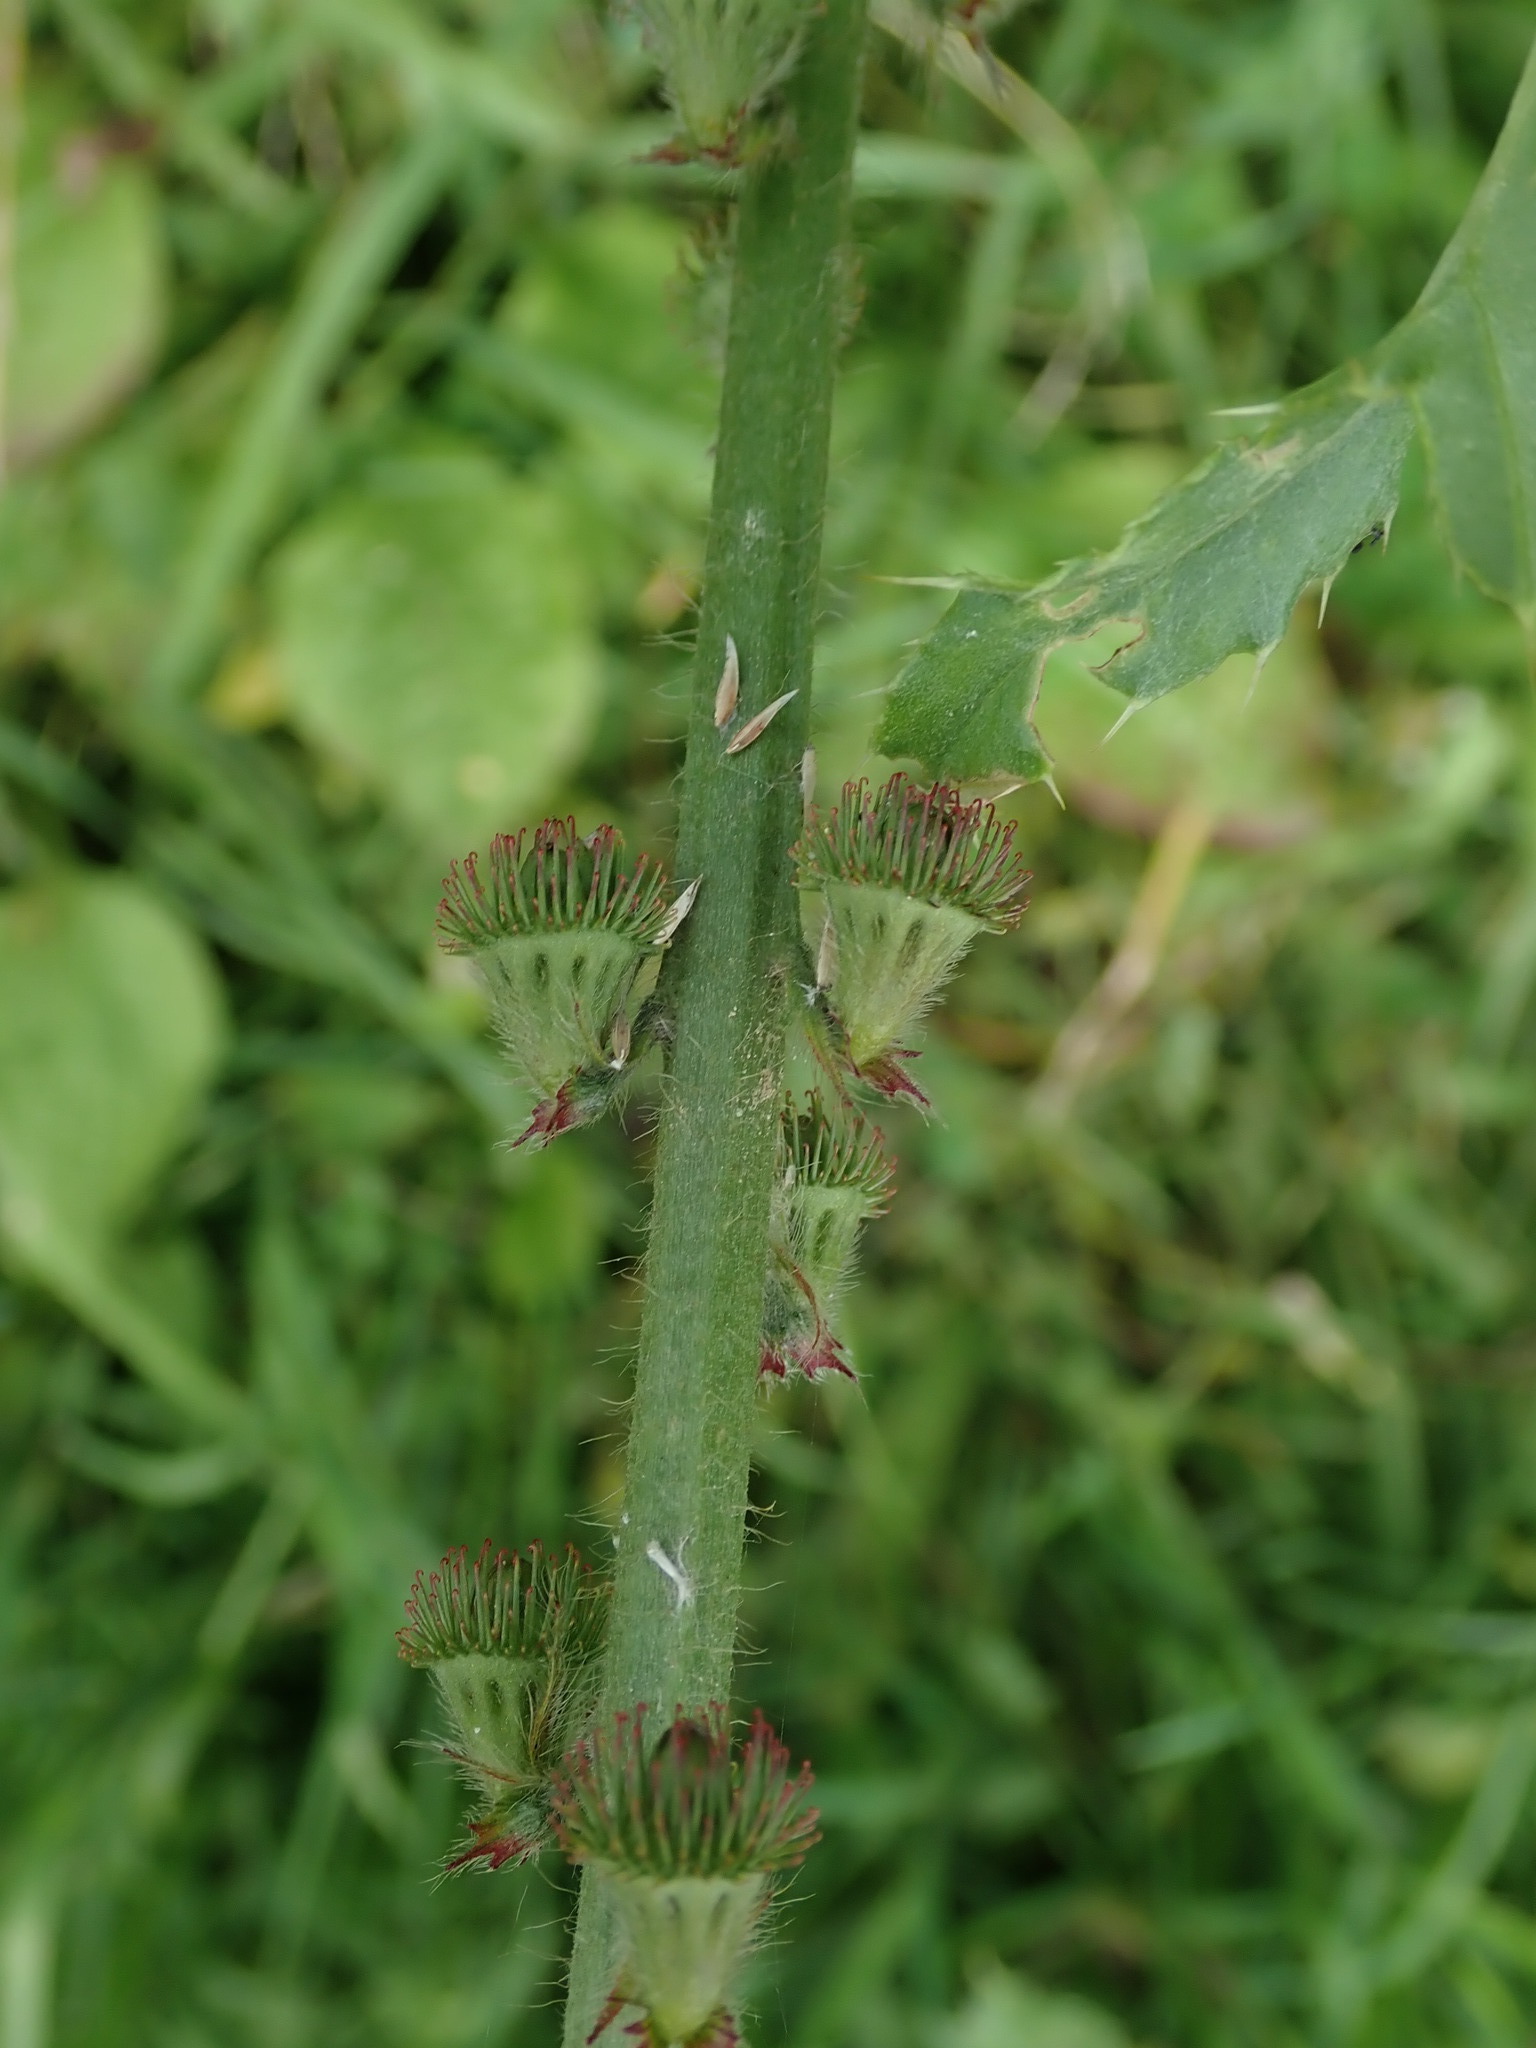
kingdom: Plantae
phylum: Tracheophyta
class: Magnoliopsida
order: Rosales
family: Rosaceae
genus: Agrimonia
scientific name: Agrimonia eupatoria
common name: Agrimony
